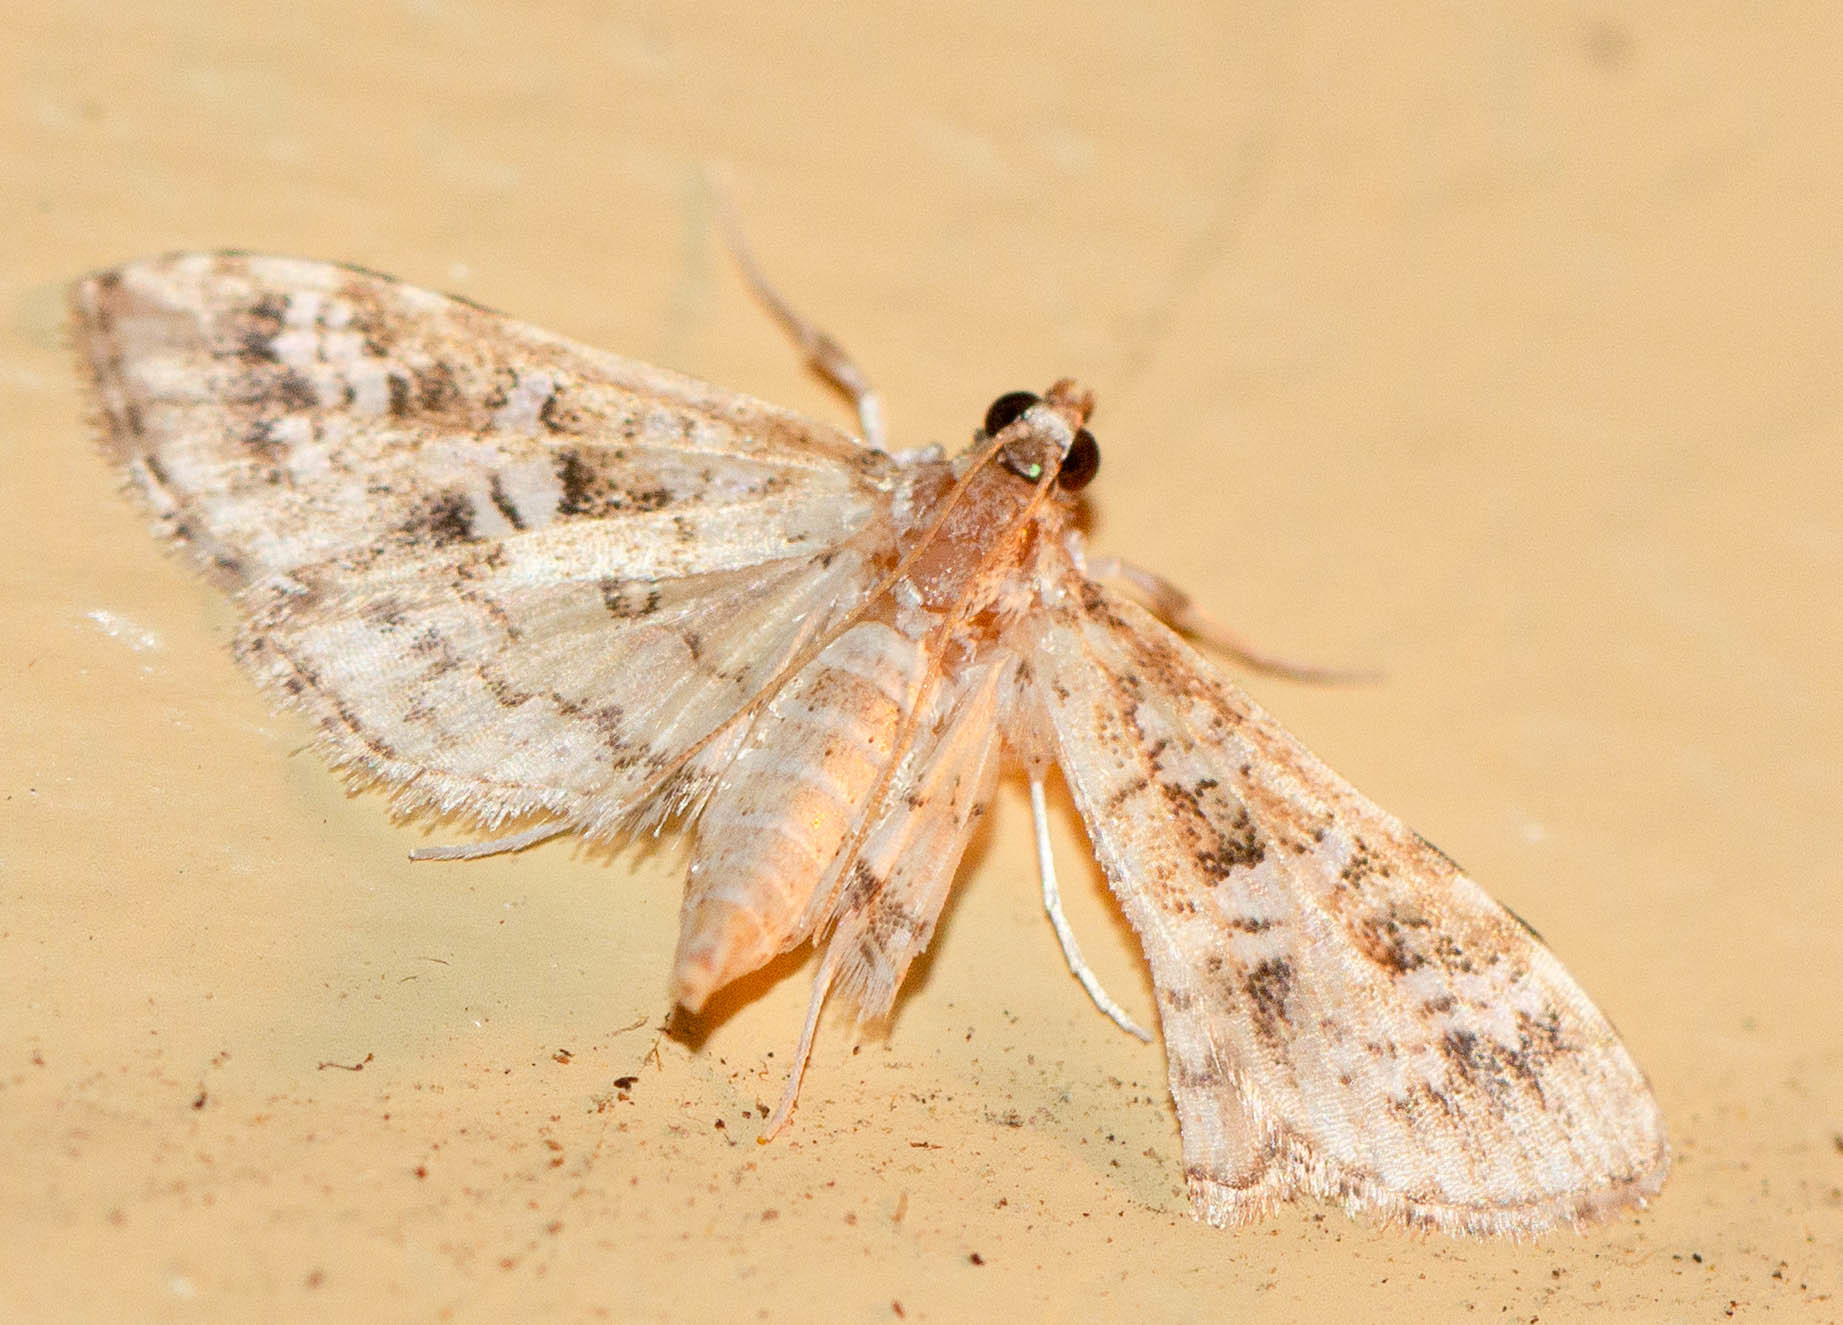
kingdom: Animalia
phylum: Arthropoda
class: Insecta
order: Lepidoptera
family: Crambidae
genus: Samea
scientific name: Samea multiplicalis
